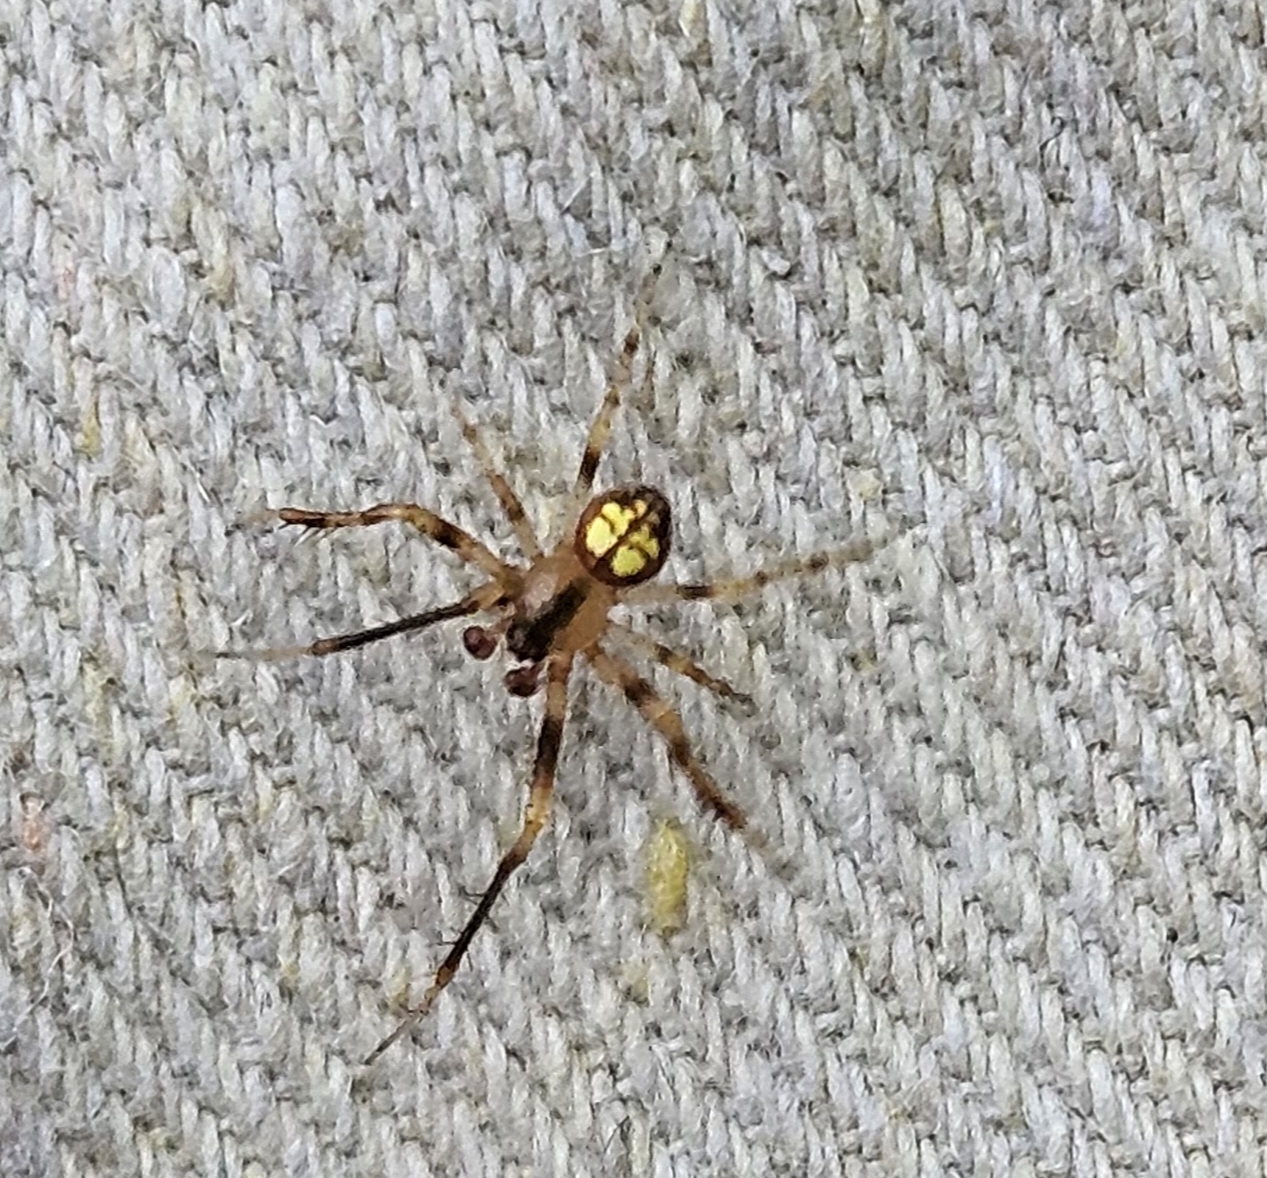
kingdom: Animalia
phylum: Arthropoda
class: Arachnida
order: Araneae
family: Araneidae
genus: Araneus
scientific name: Araneus thaddeus
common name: Lattice orbweaver
